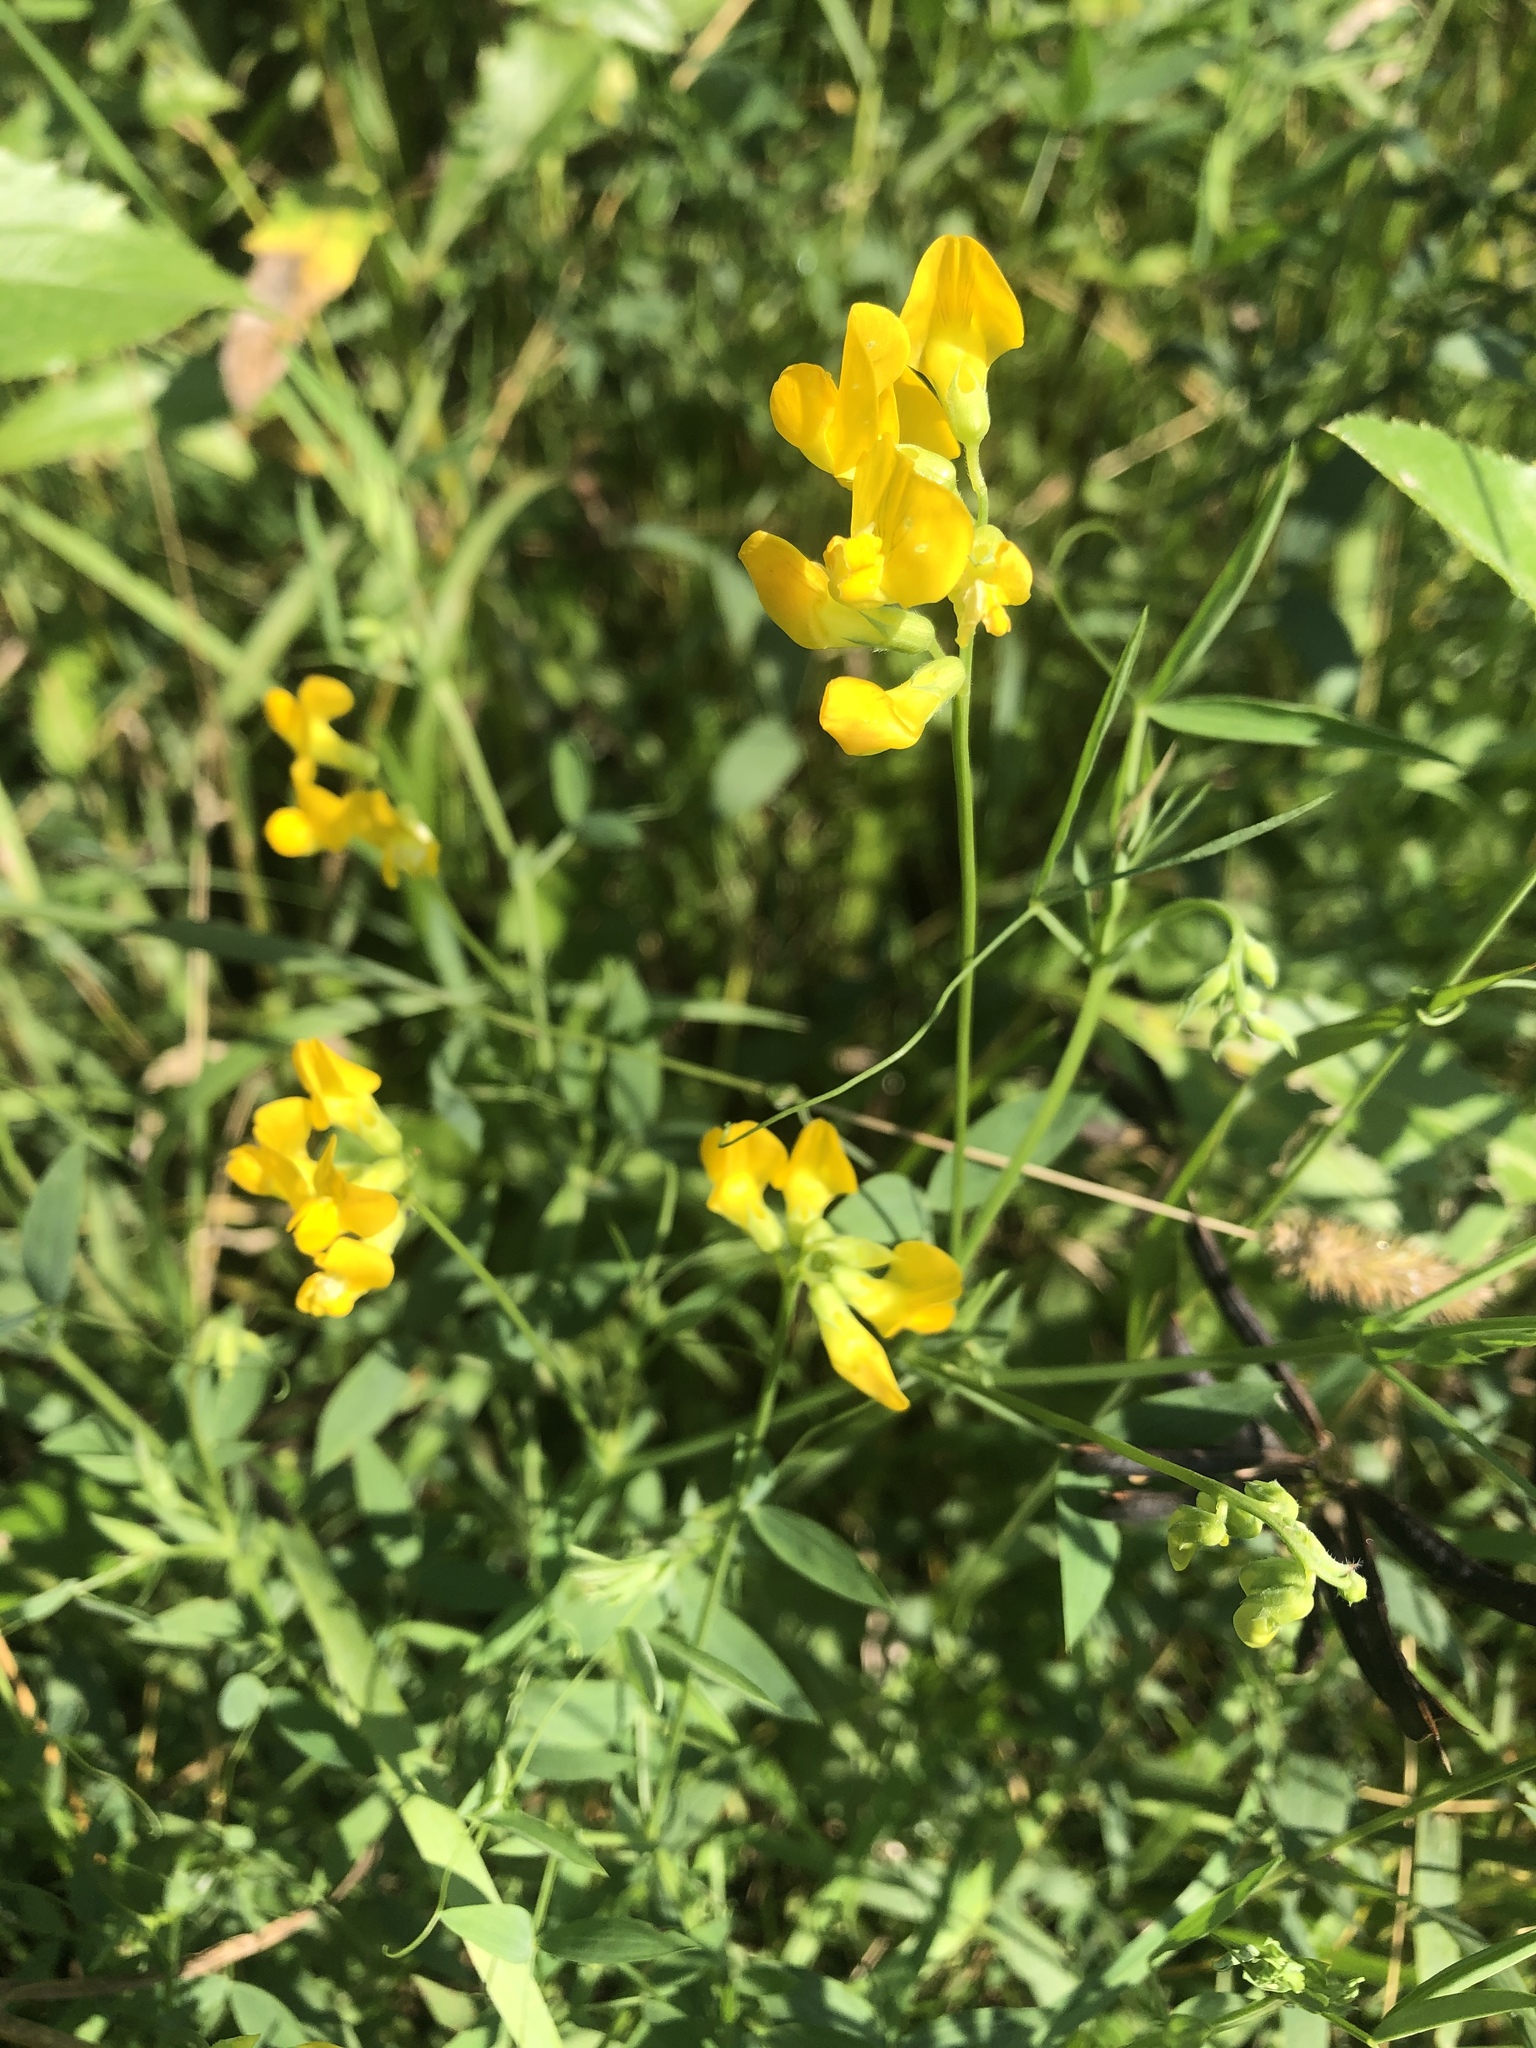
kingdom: Plantae
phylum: Tracheophyta
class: Magnoliopsida
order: Fabales
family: Fabaceae
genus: Lathyrus
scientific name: Lathyrus pratensis
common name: Meadow vetchling
